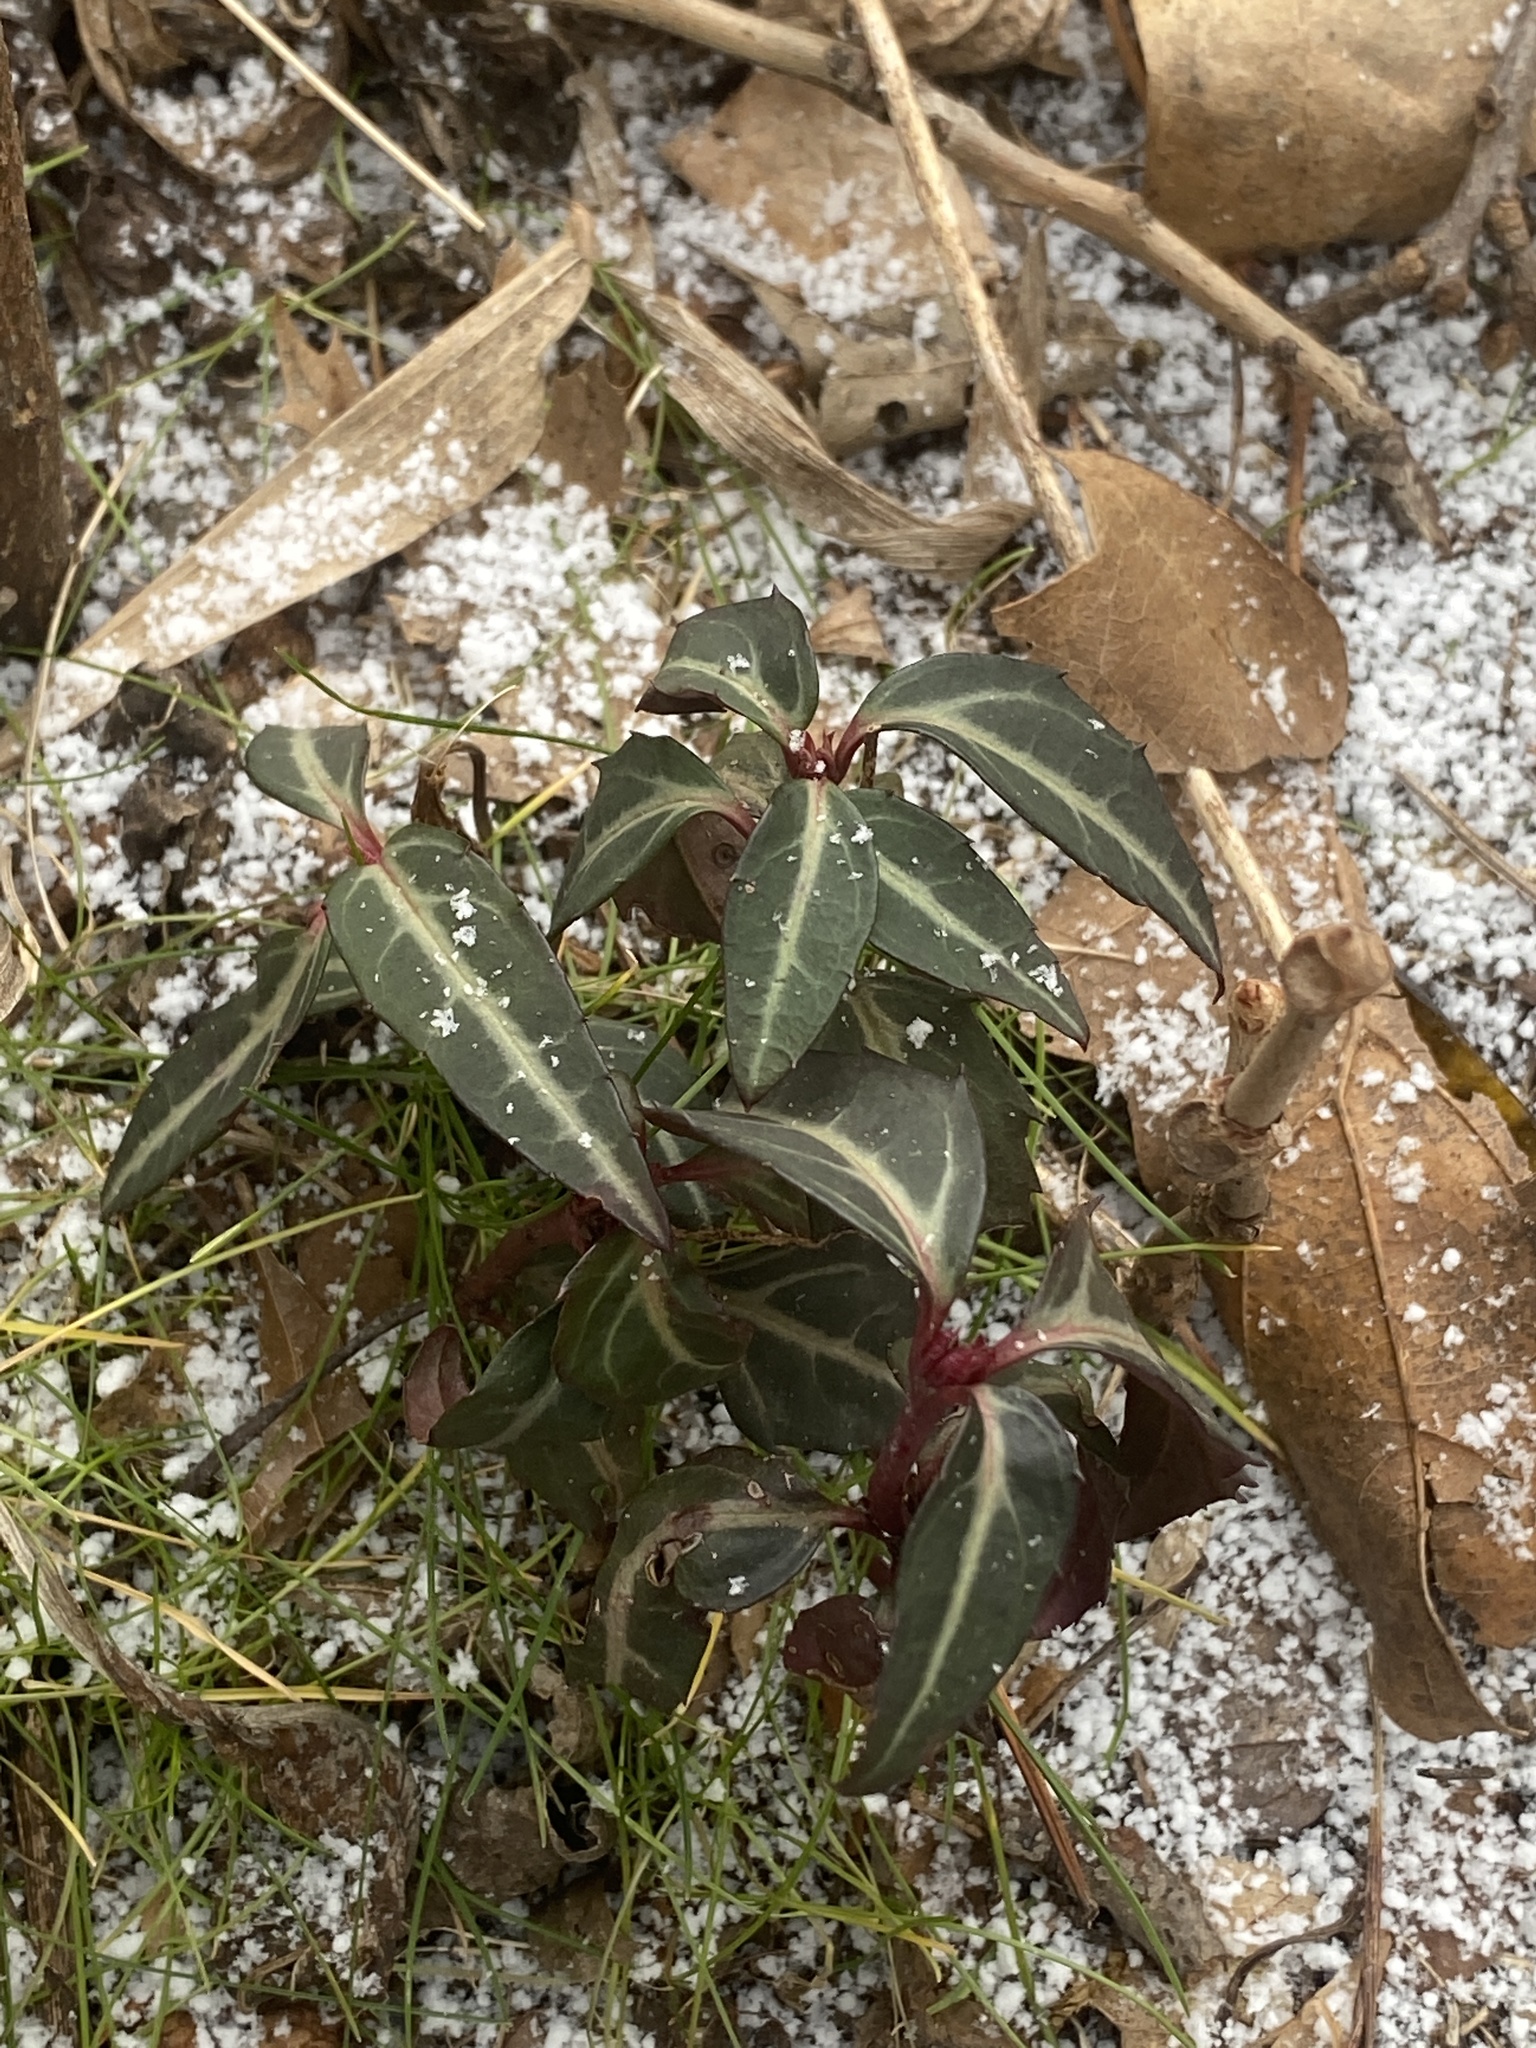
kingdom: Plantae
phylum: Tracheophyta
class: Magnoliopsida
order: Ericales
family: Ericaceae
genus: Chimaphila
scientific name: Chimaphila maculata
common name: Spotted pipsissewa
